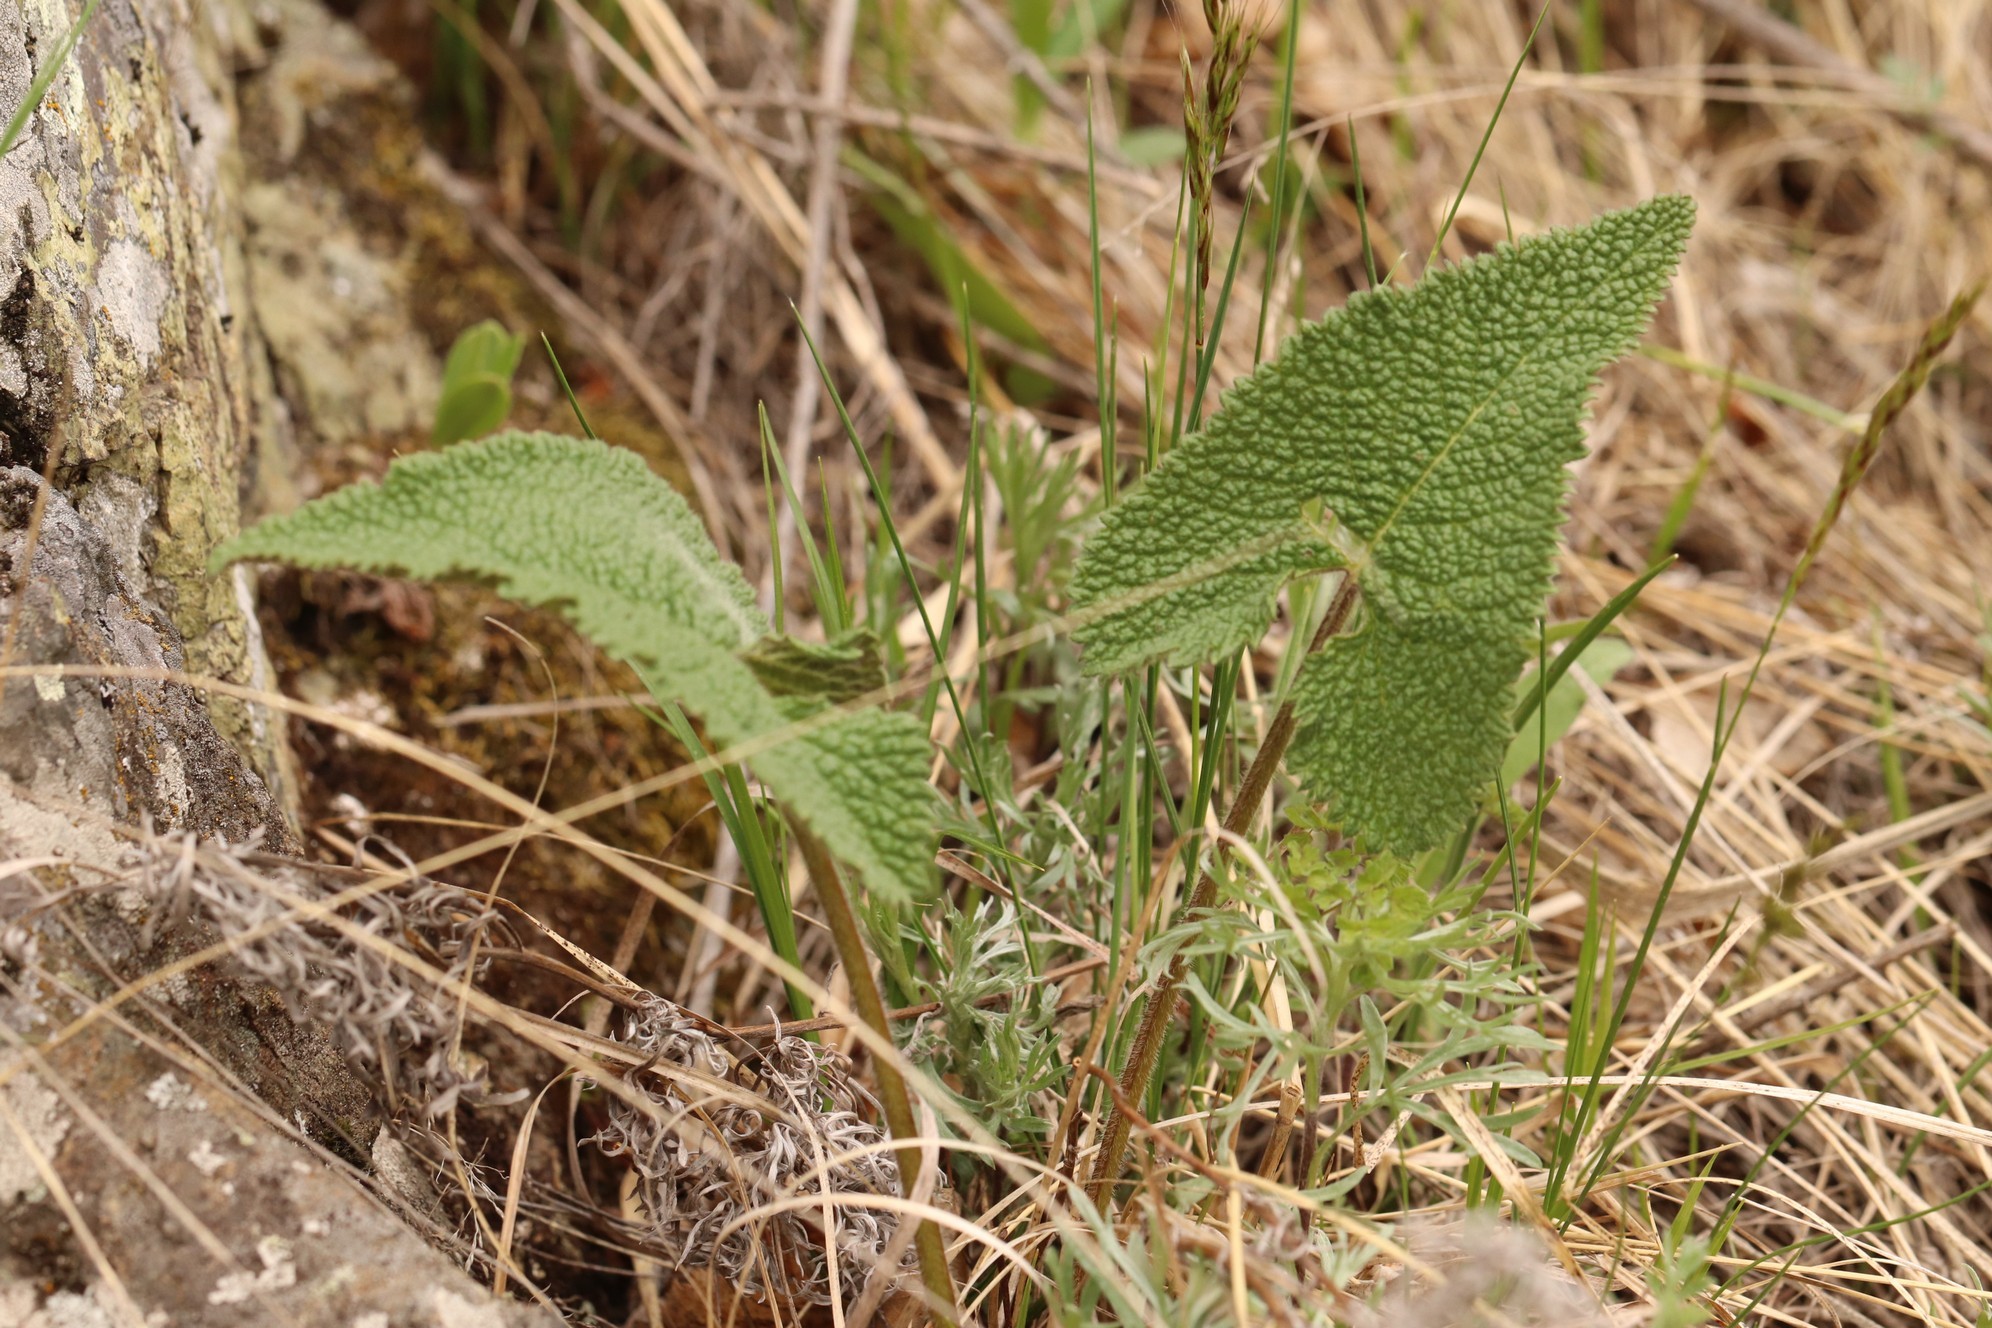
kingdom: Plantae
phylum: Tracheophyta
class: Magnoliopsida
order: Lamiales
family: Lamiaceae
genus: Phlomoides
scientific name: Phlomoides tuberosa
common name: Tuberous jerusalem sage
